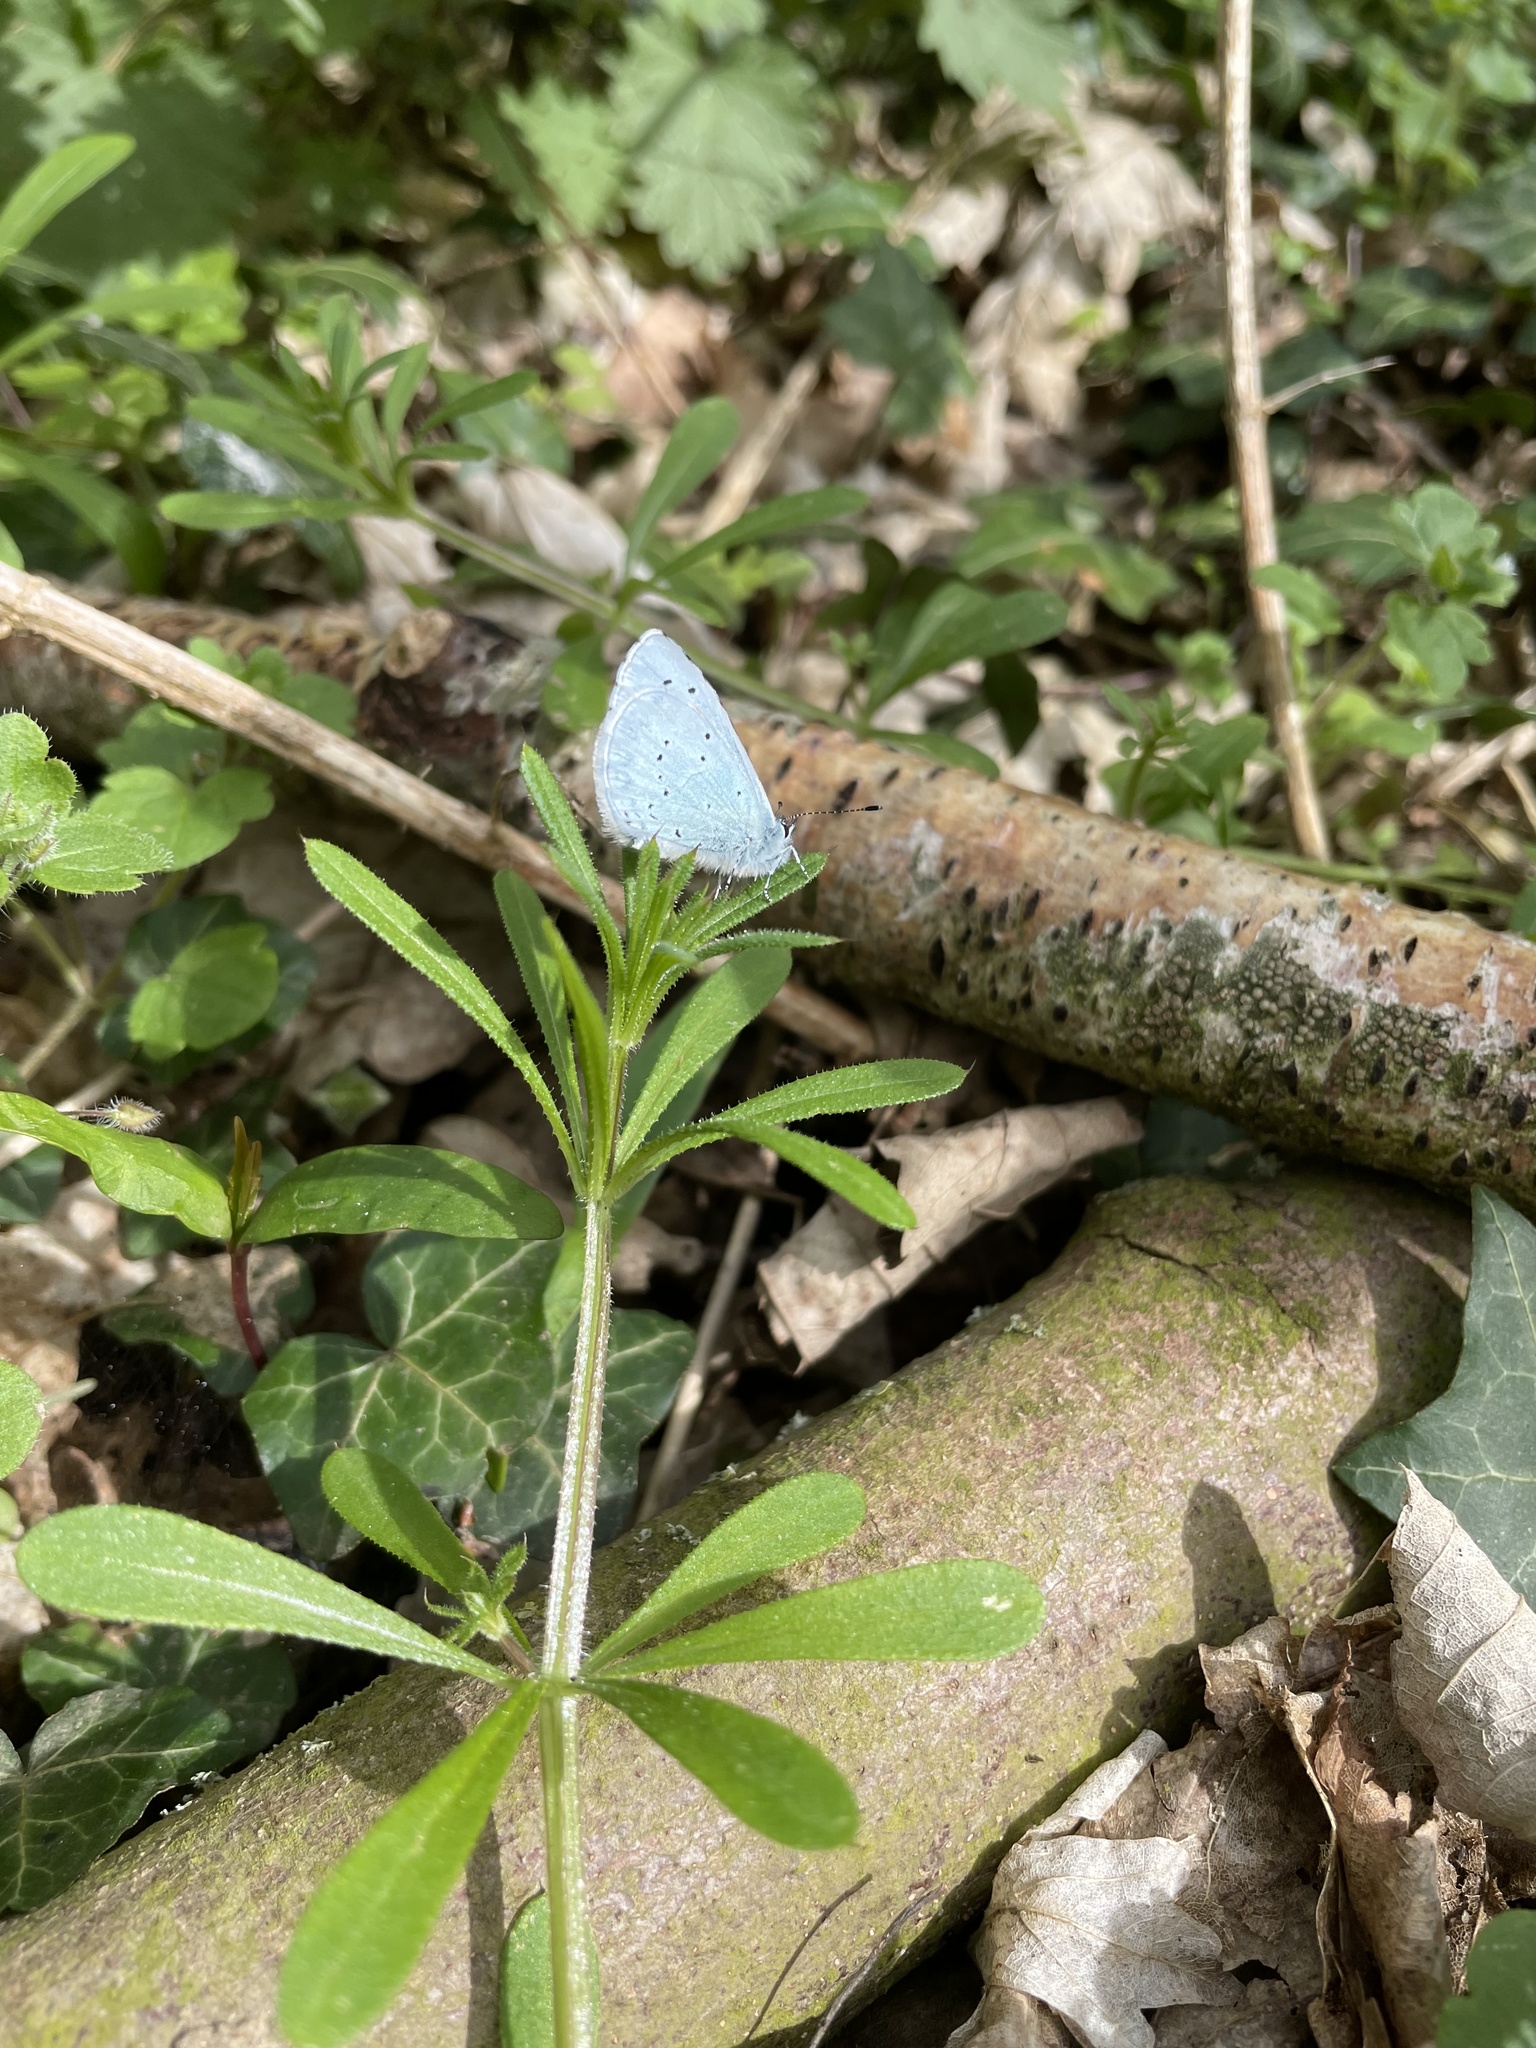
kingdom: Animalia
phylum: Arthropoda
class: Insecta
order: Lepidoptera
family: Lycaenidae
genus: Celastrina
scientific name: Celastrina argiolus
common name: Holly blue
